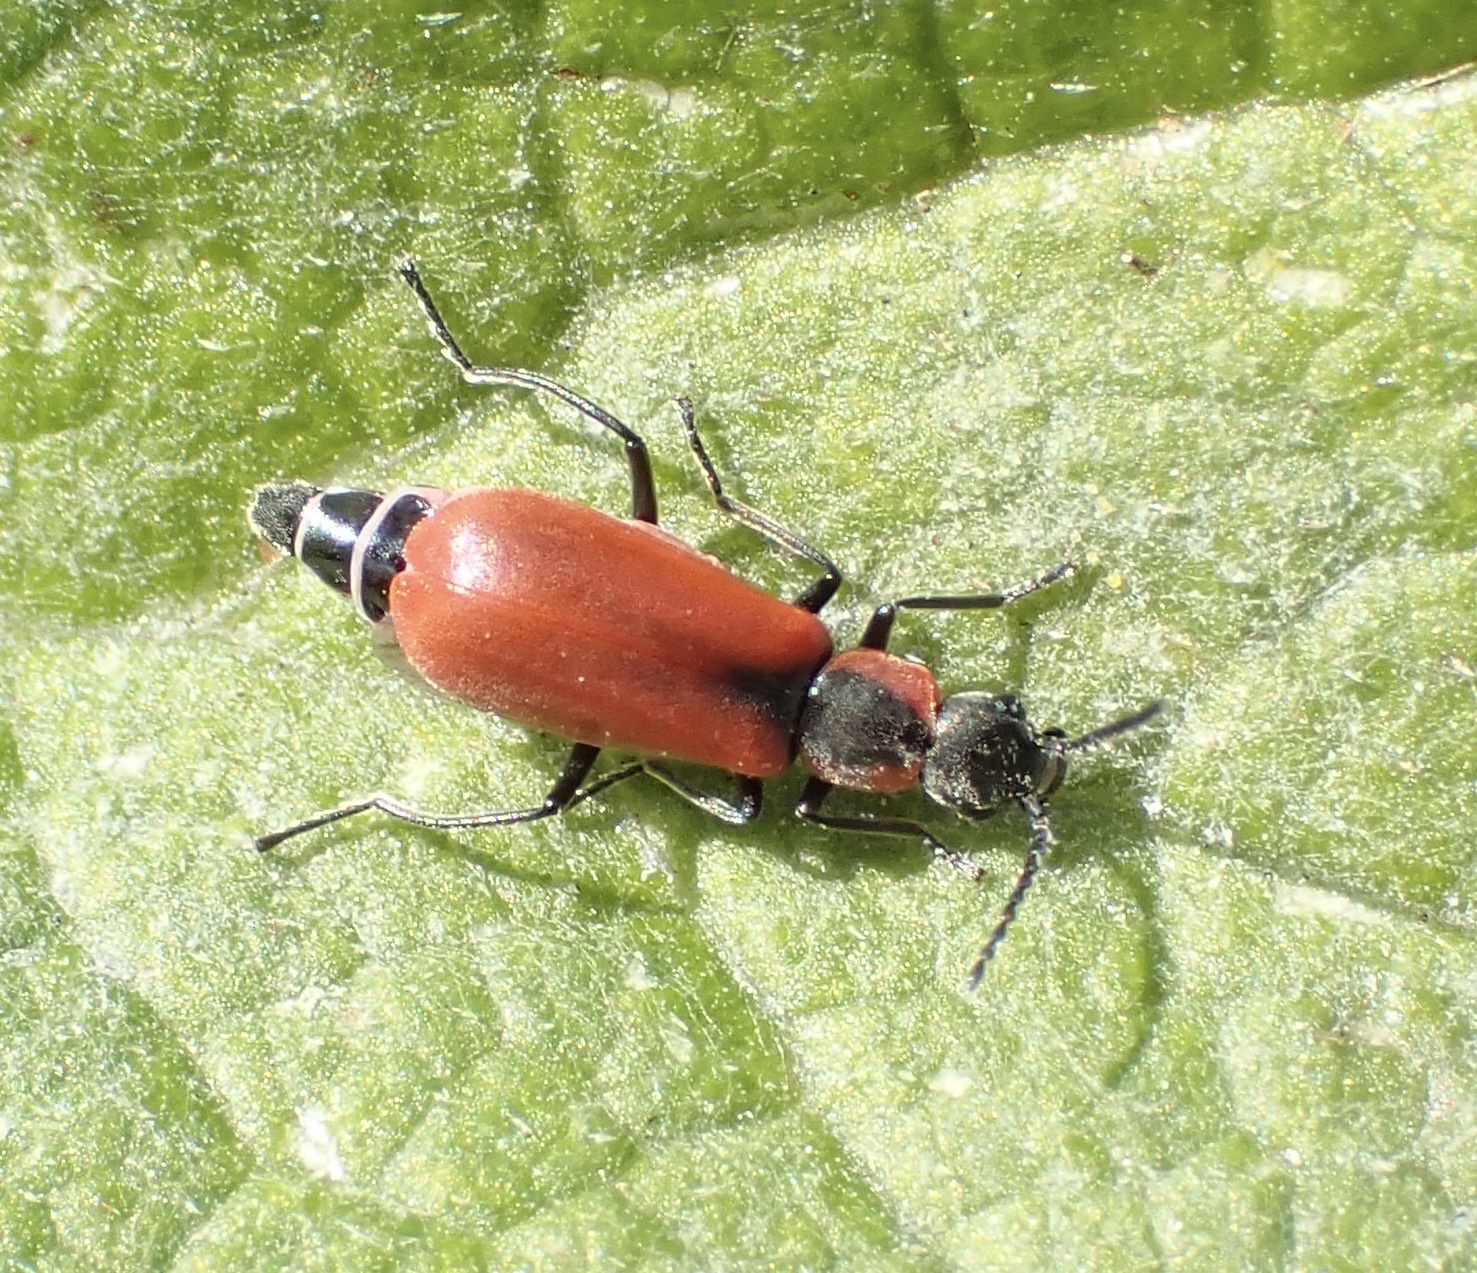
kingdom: Animalia
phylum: Arthropoda
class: Insecta
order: Coleoptera
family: Melyridae
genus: Anthocomus
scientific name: Anthocomus rufus
